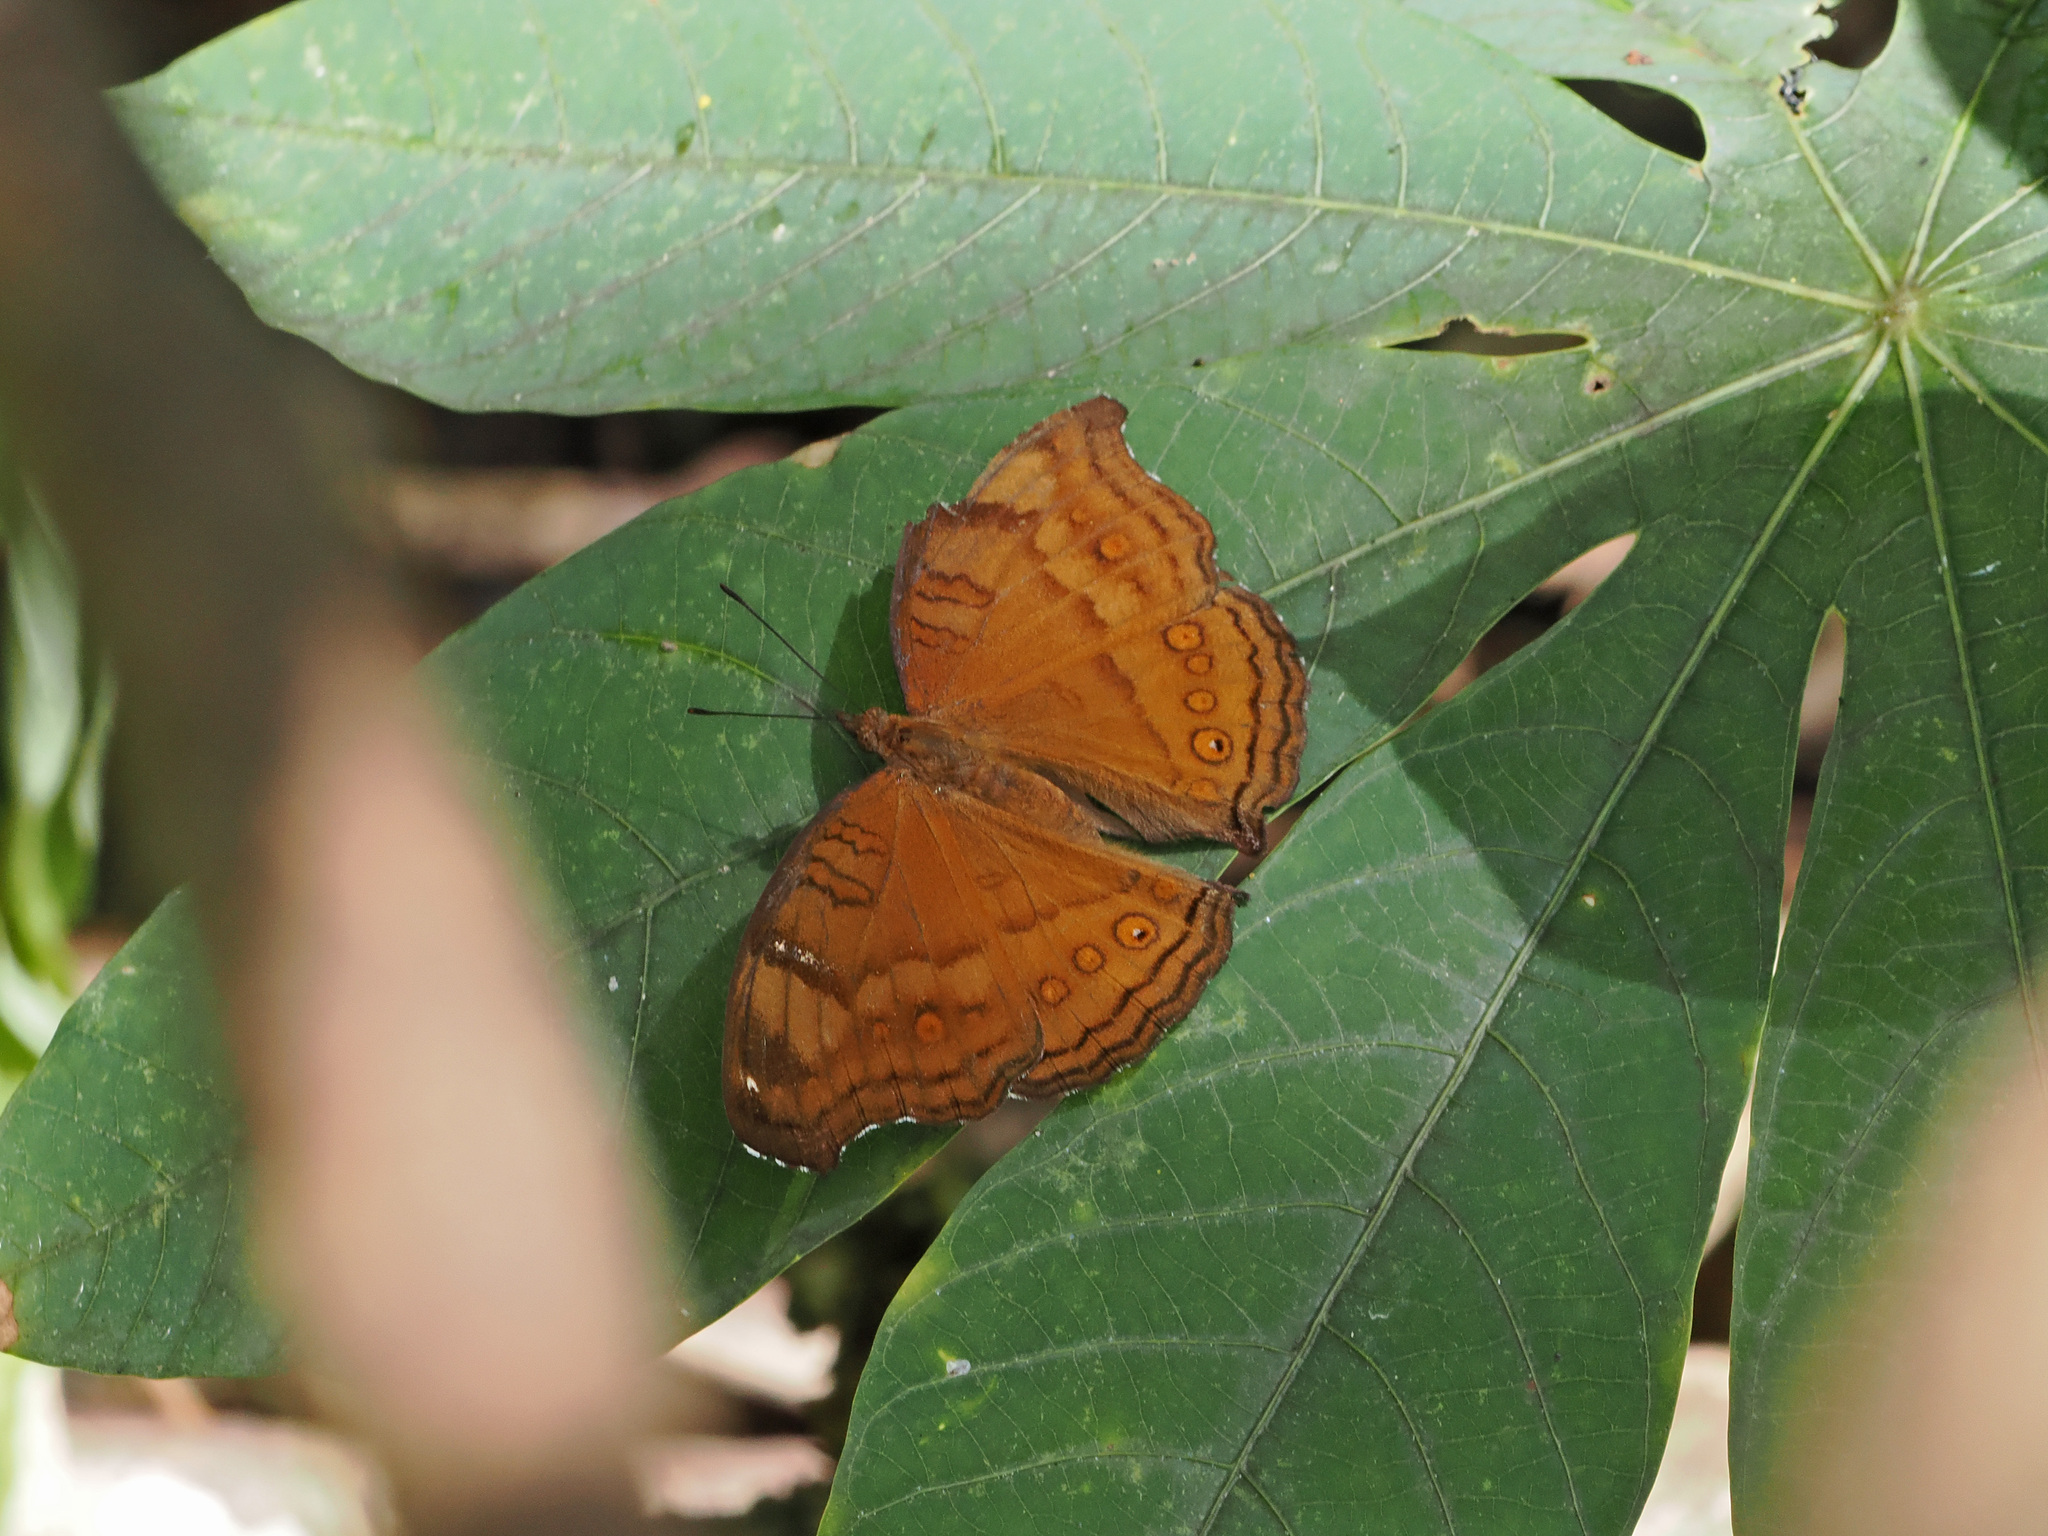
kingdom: Animalia
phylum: Arthropoda
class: Insecta
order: Lepidoptera
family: Nymphalidae
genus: Junonia
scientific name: Junonia hedonia
